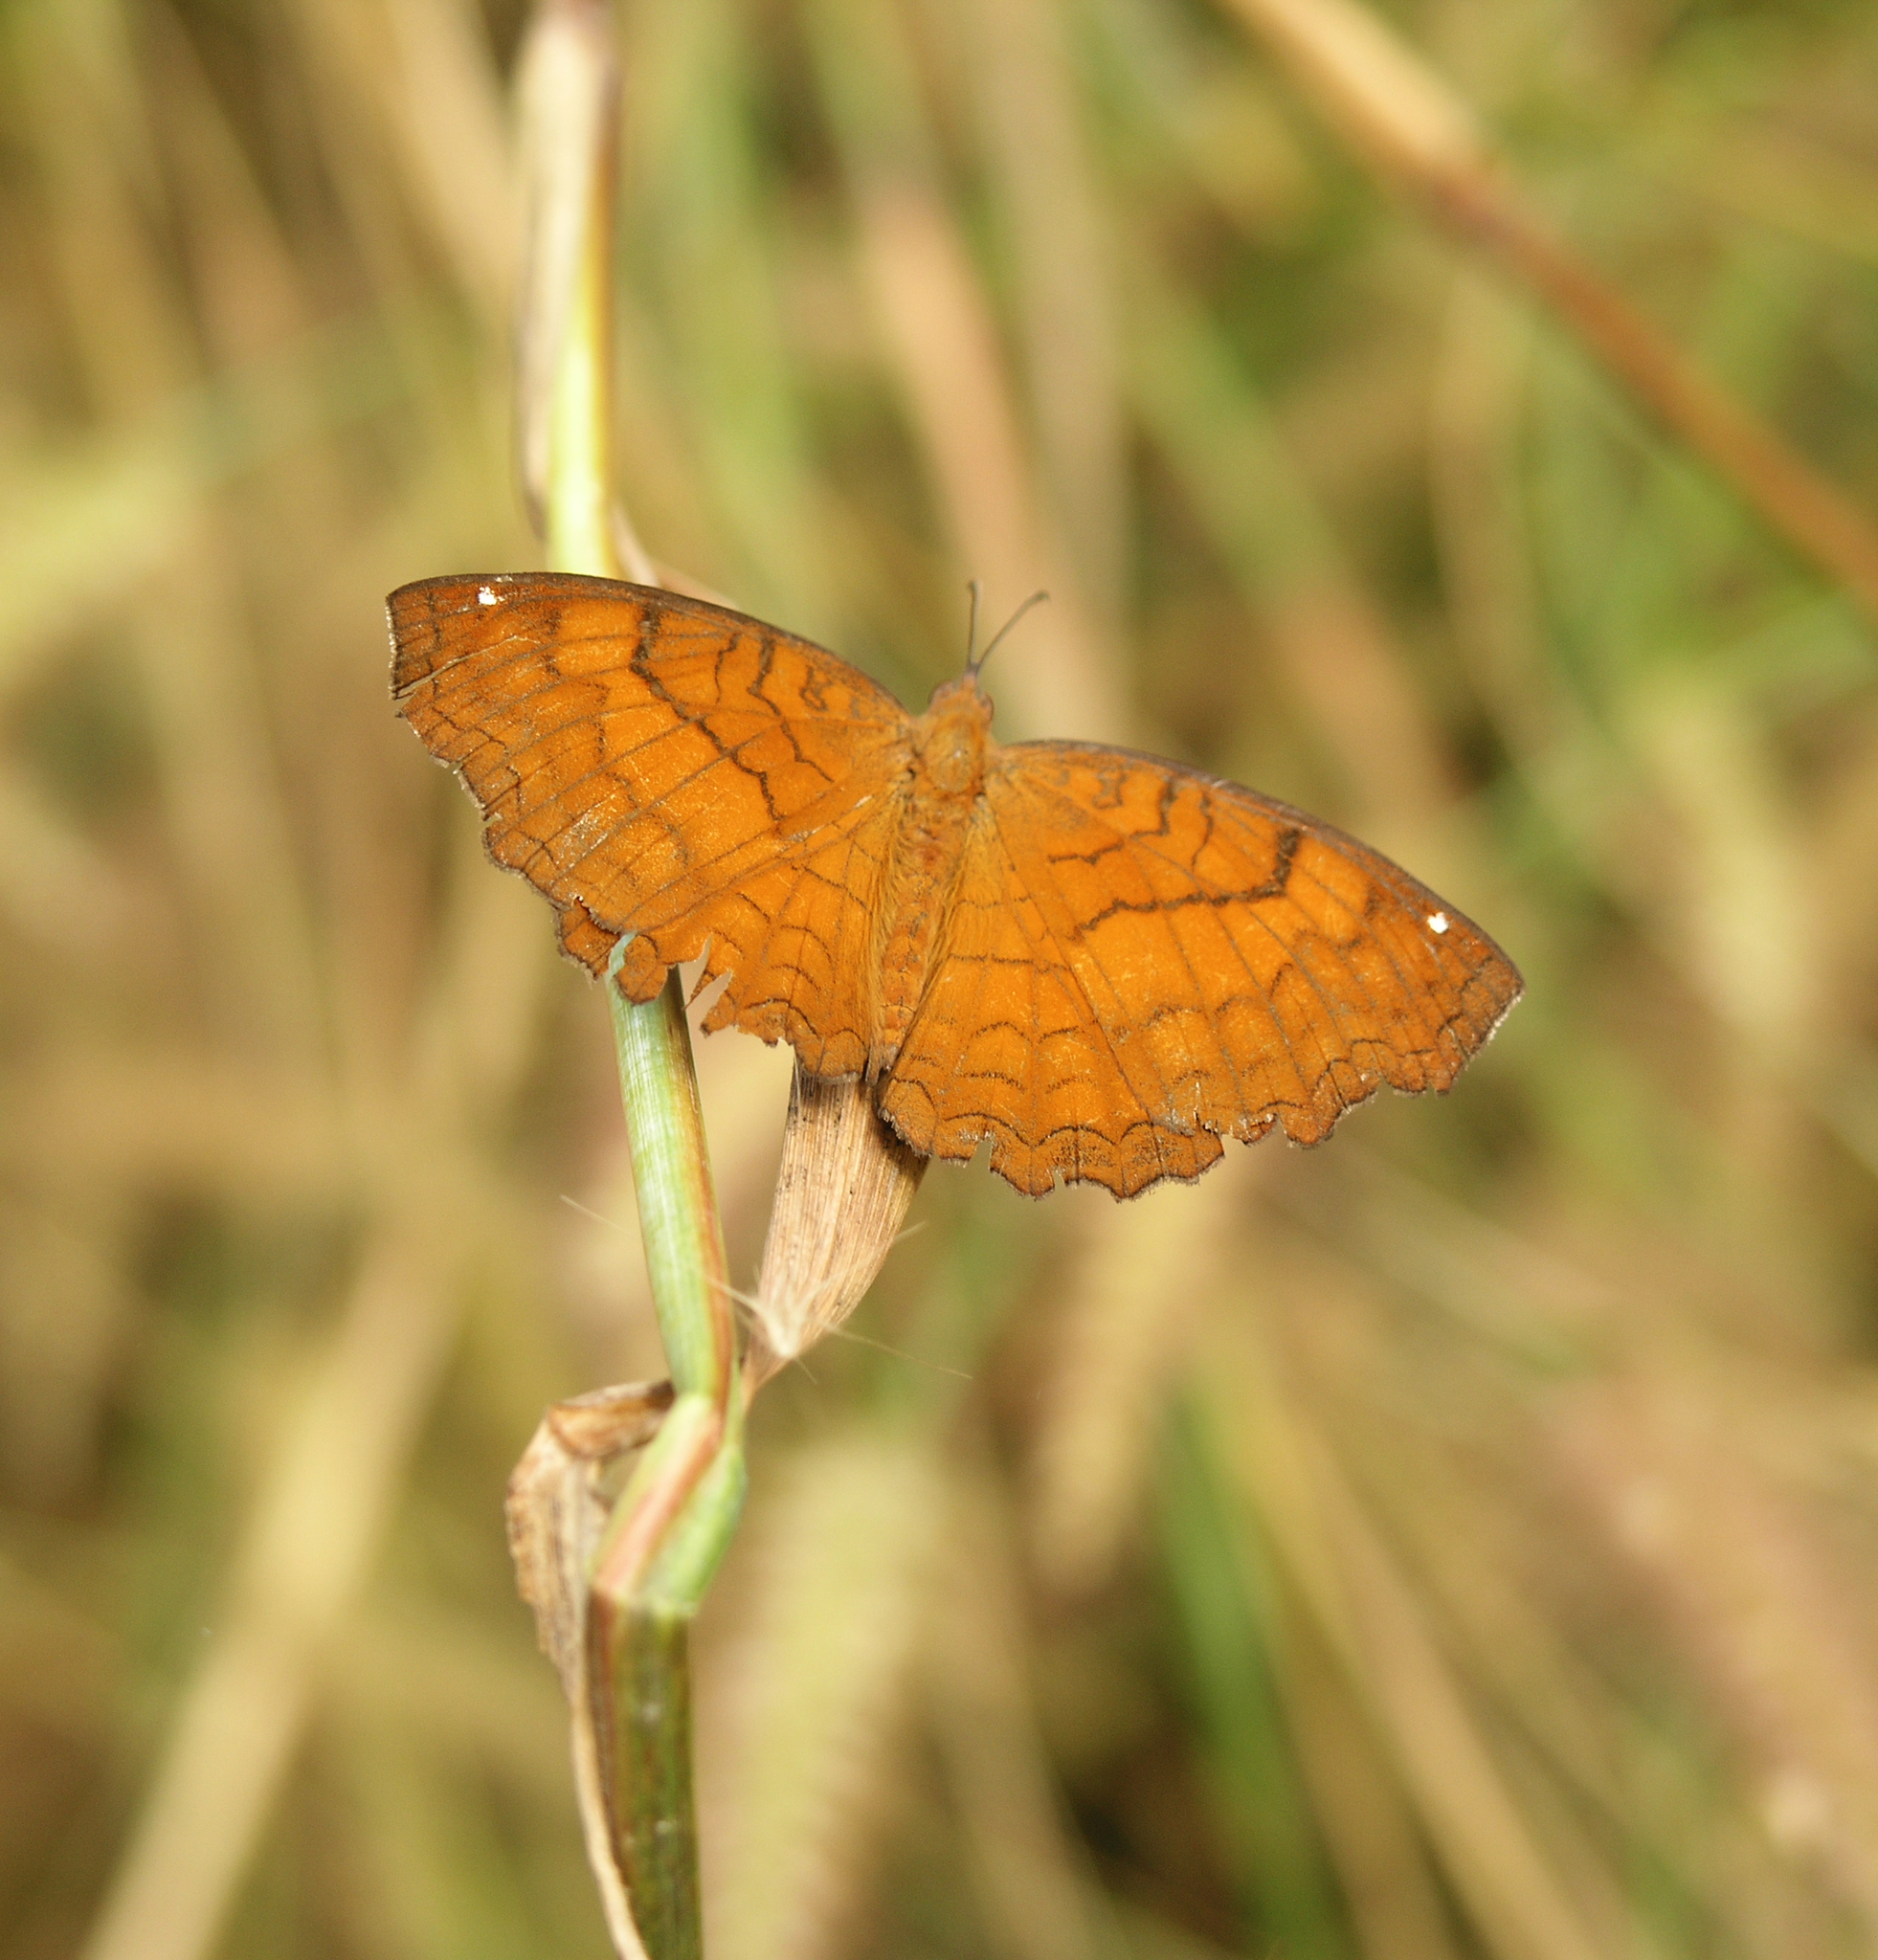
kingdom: Animalia
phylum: Arthropoda
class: Insecta
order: Lepidoptera
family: Nymphalidae
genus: Ariadne
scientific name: Ariadne ariadne
